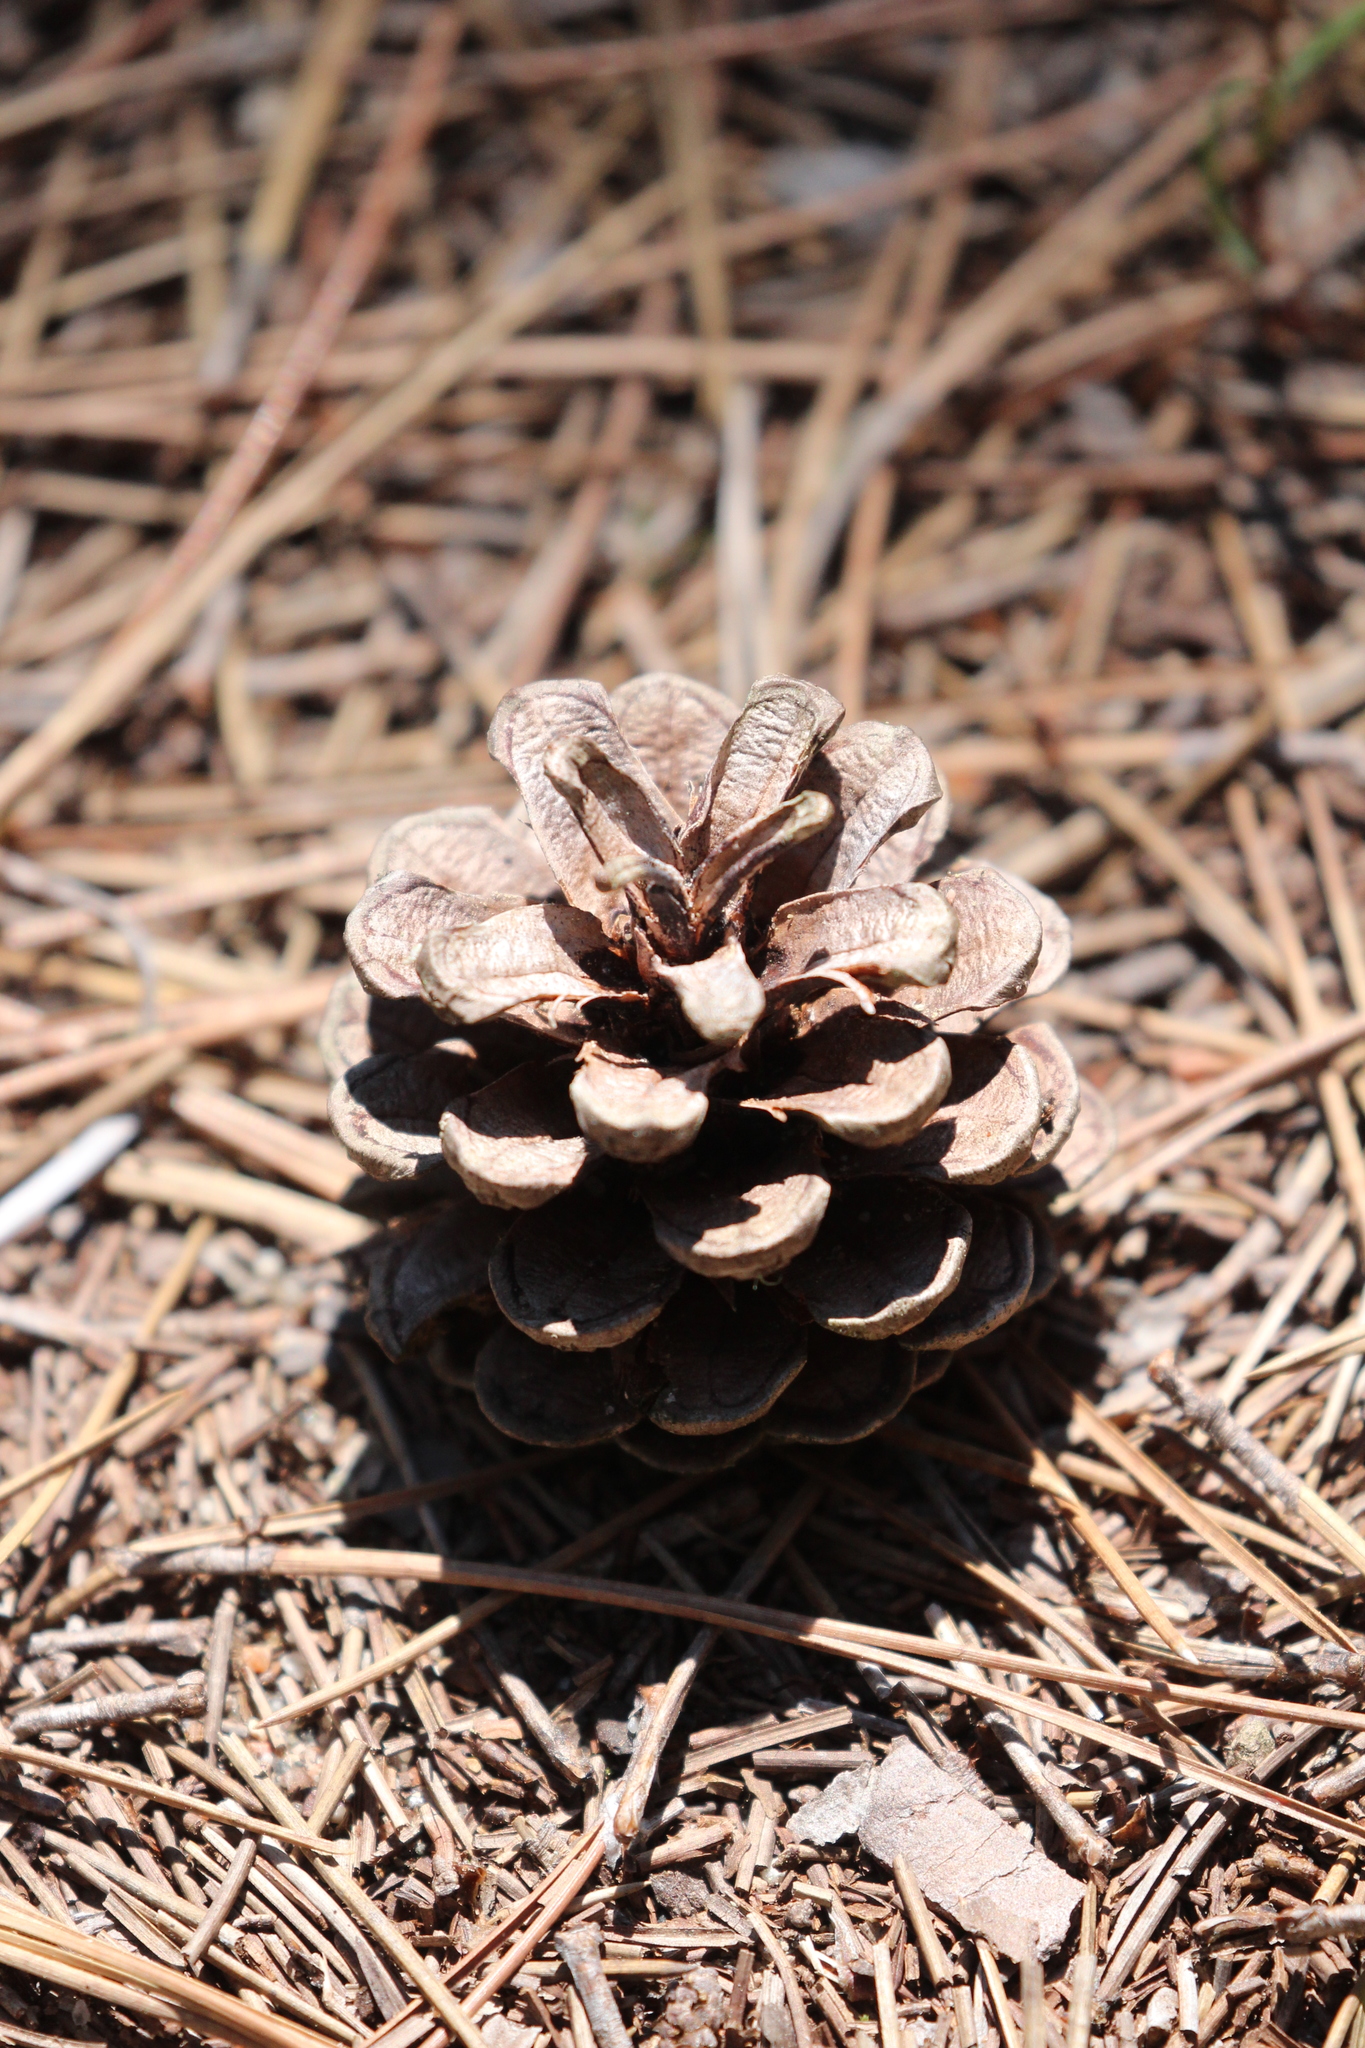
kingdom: Plantae
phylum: Tracheophyta
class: Pinopsida
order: Pinales
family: Pinaceae
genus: Pinus
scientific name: Pinus resinosa
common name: Norway pine
